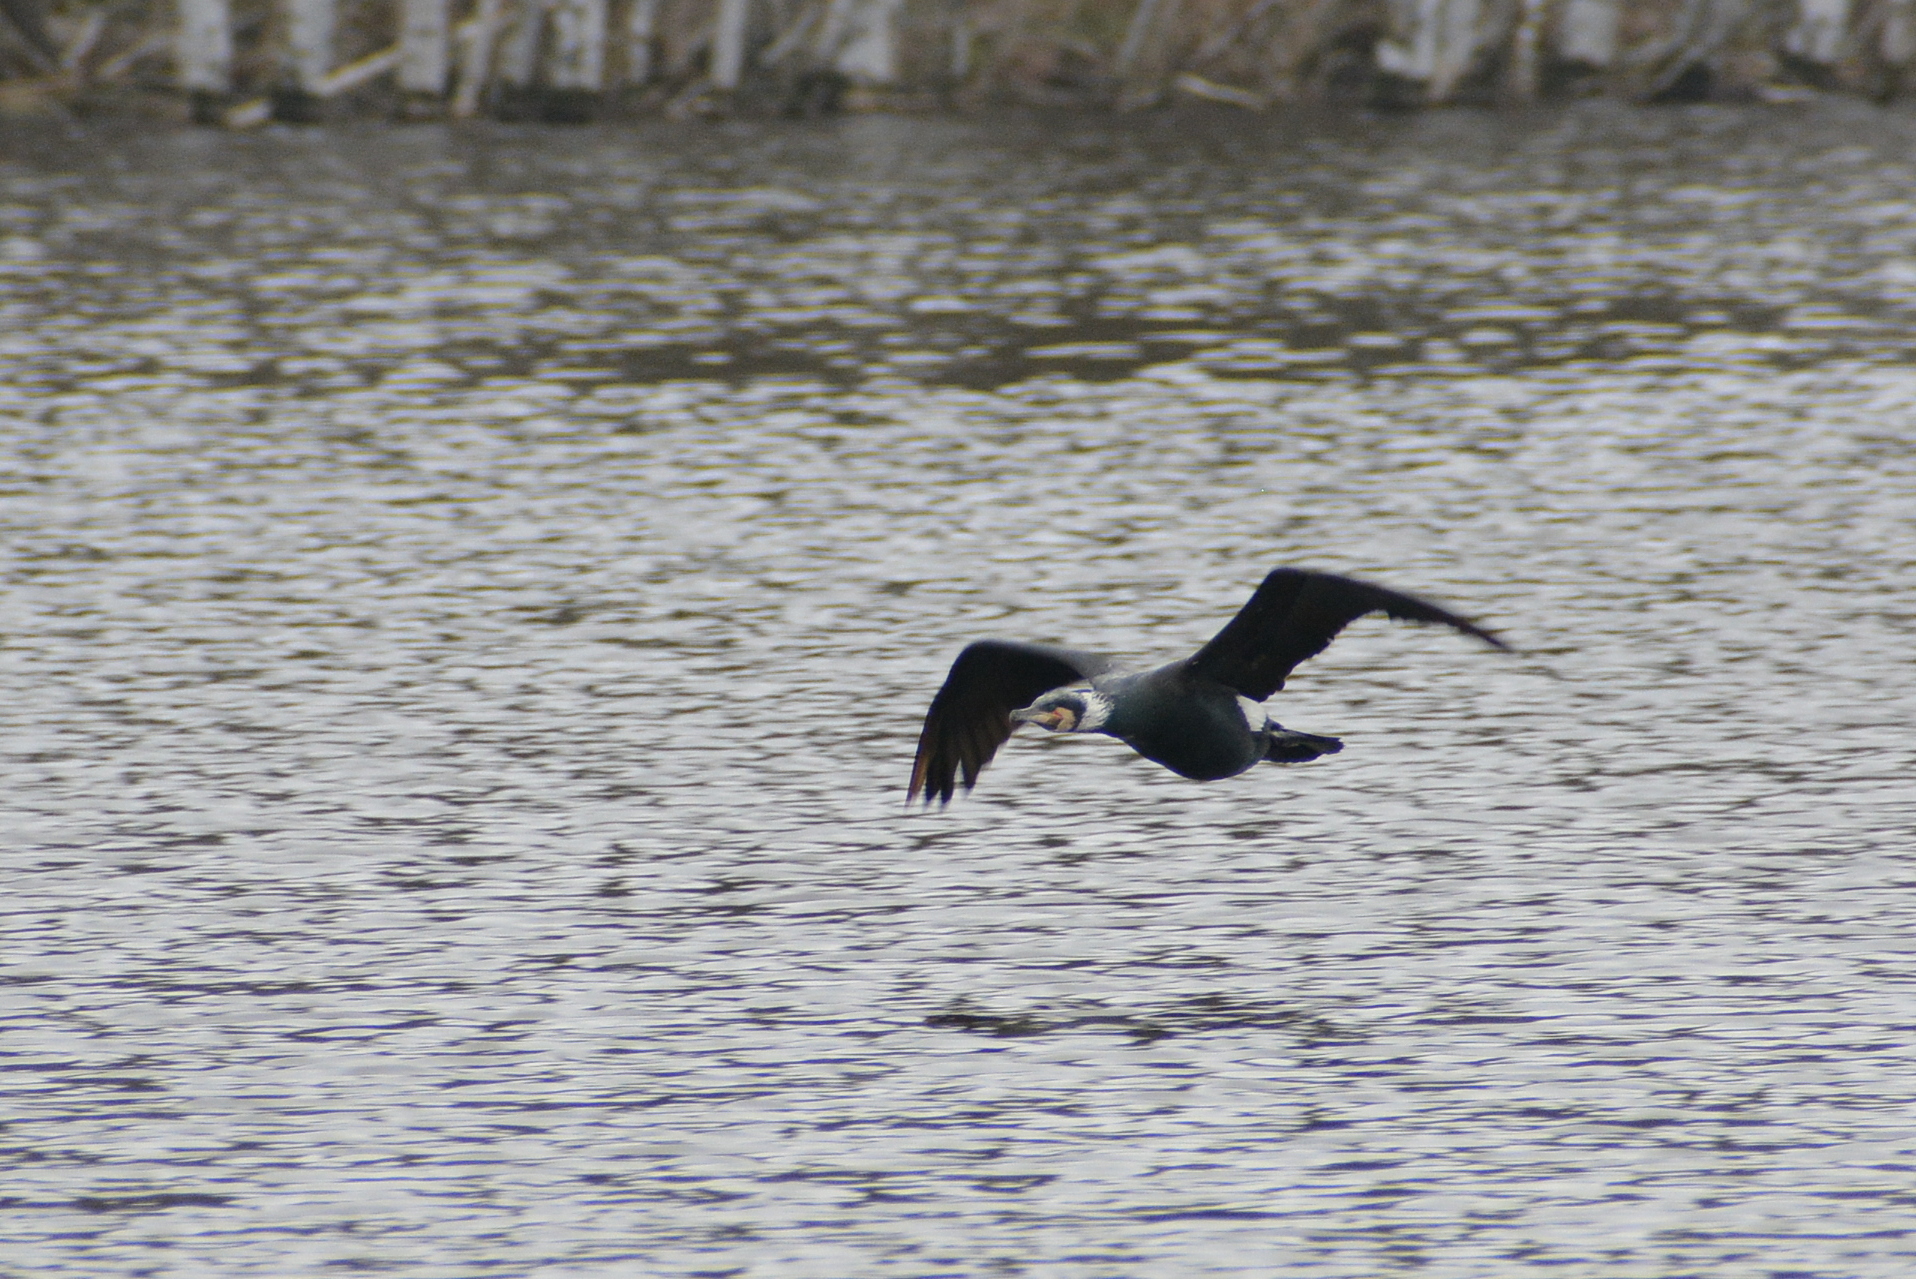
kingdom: Animalia
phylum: Chordata
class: Aves
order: Suliformes
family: Phalacrocoracidae
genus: Phalacrocorax
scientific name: Phalacrocorax carbo
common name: Great cormorant
